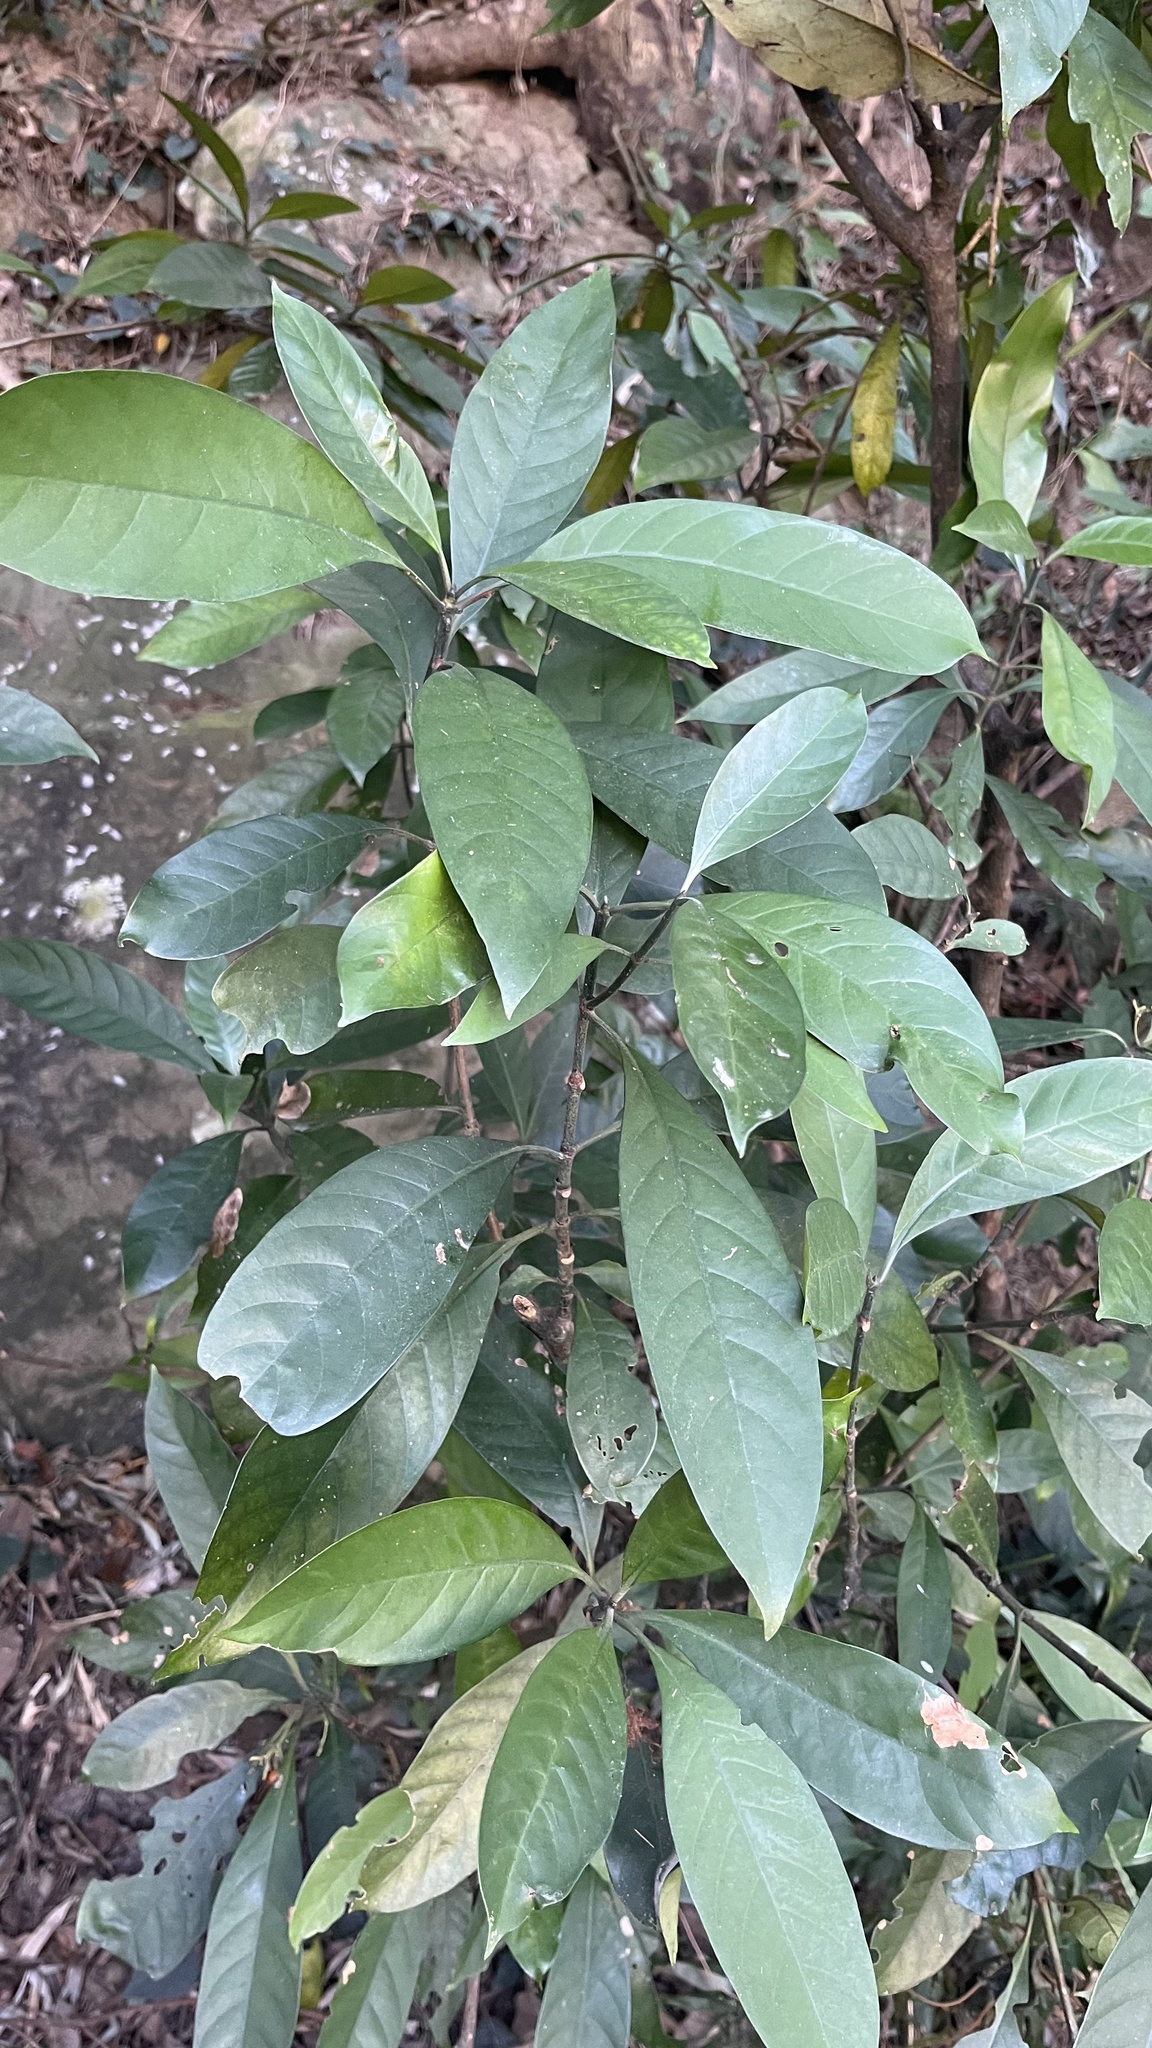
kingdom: Plantae
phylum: Tracheophyta
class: Magnoliopsida
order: Gentianales
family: Rubiaceae
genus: Psychotria
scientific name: Psychotria asiatica
